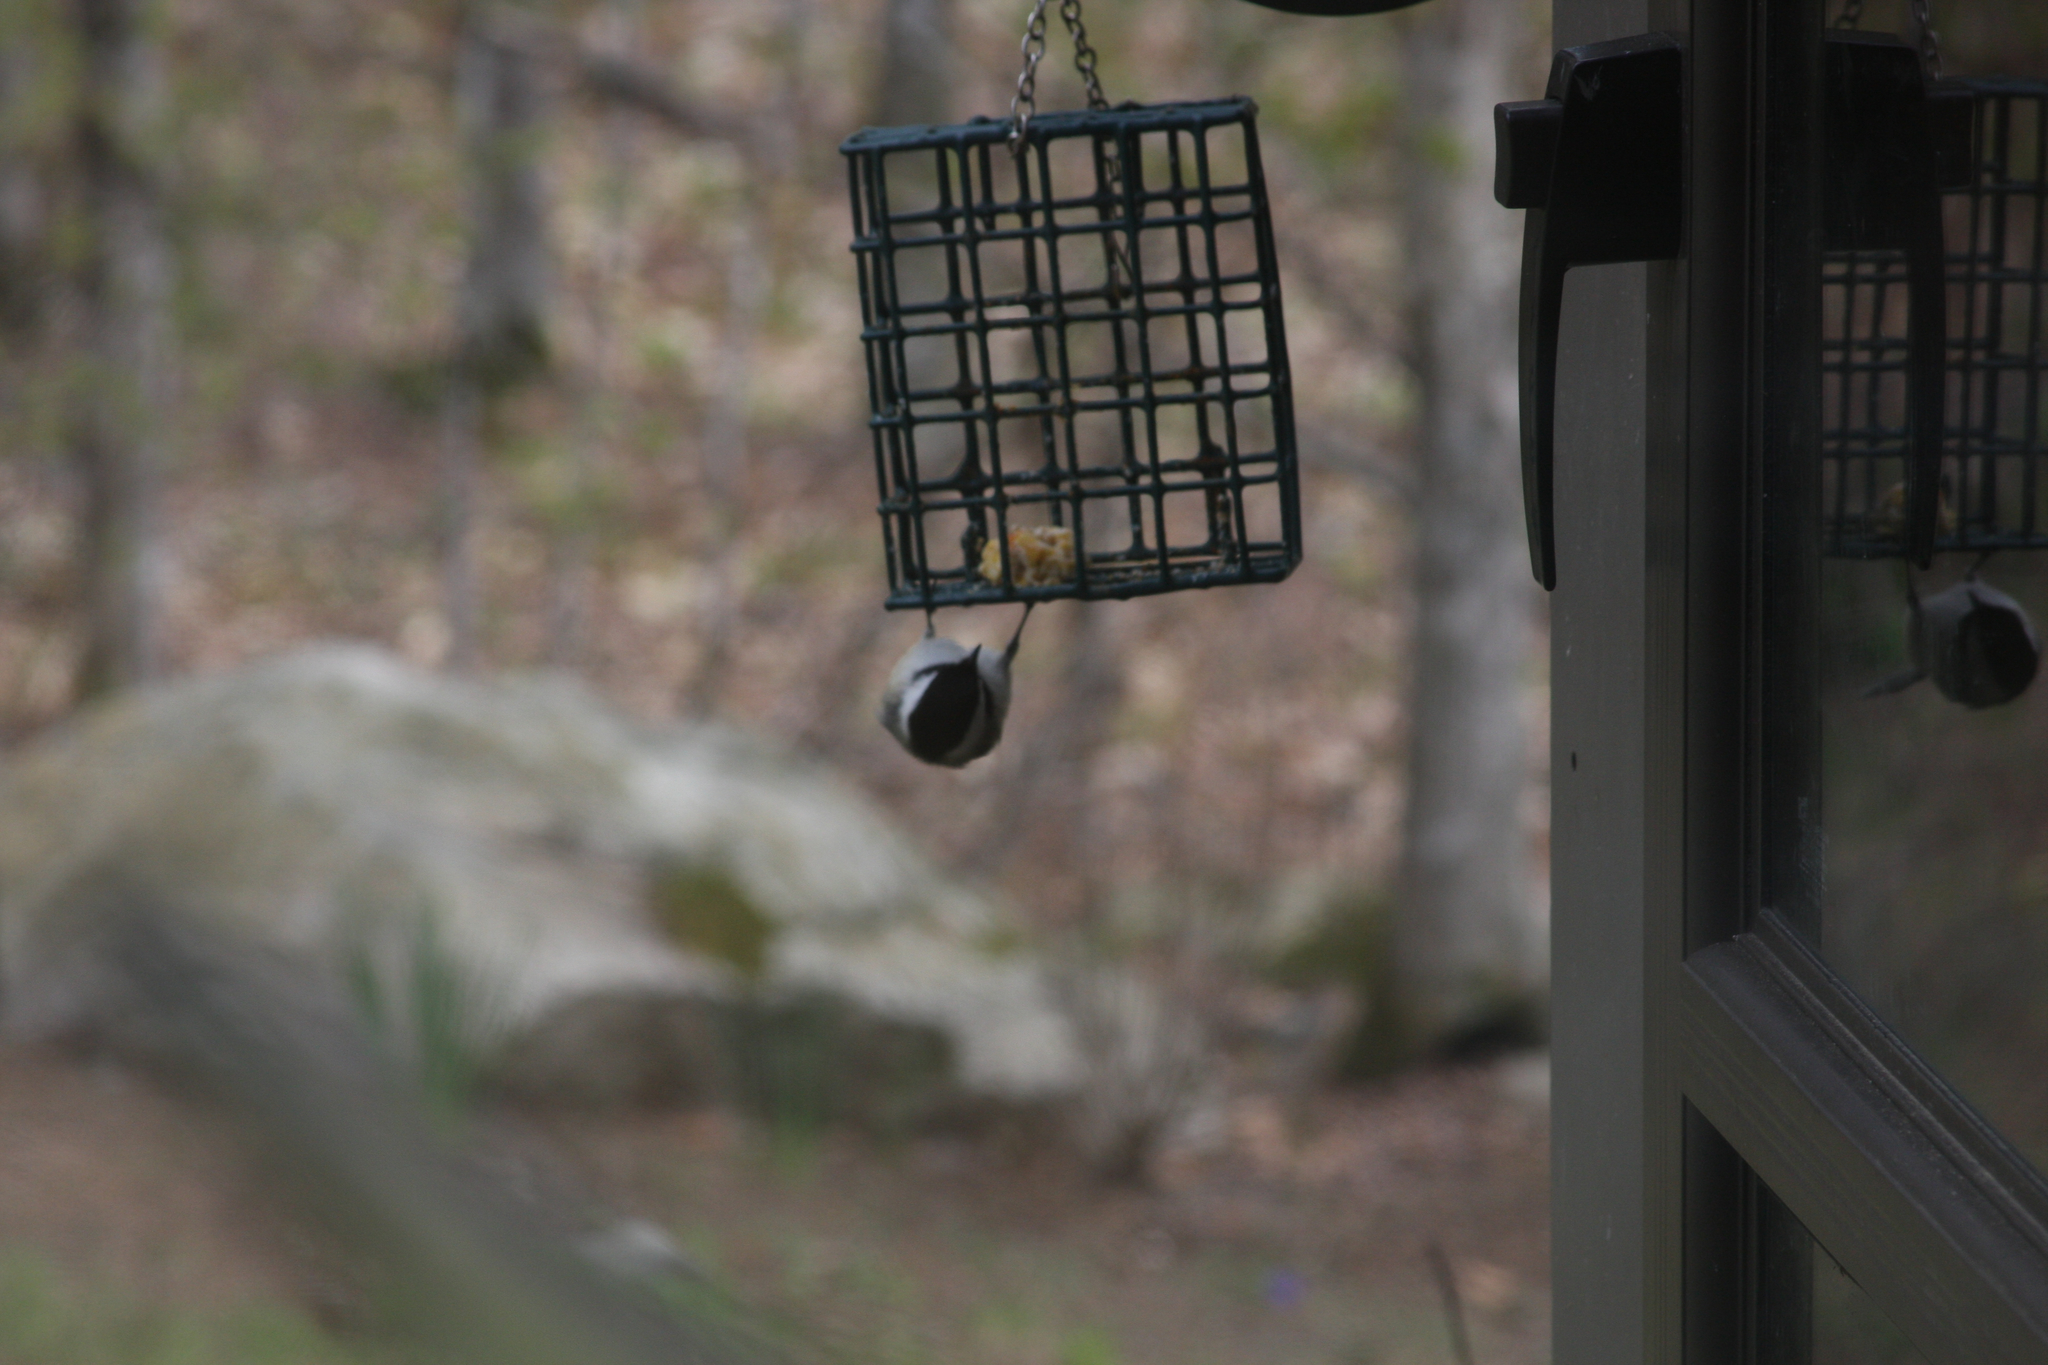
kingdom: Animalia
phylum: Chordata
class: Aves
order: Passeriformes
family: Paridae
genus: Poecile
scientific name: Poecile atricapillus
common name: Black-capped chickadee
